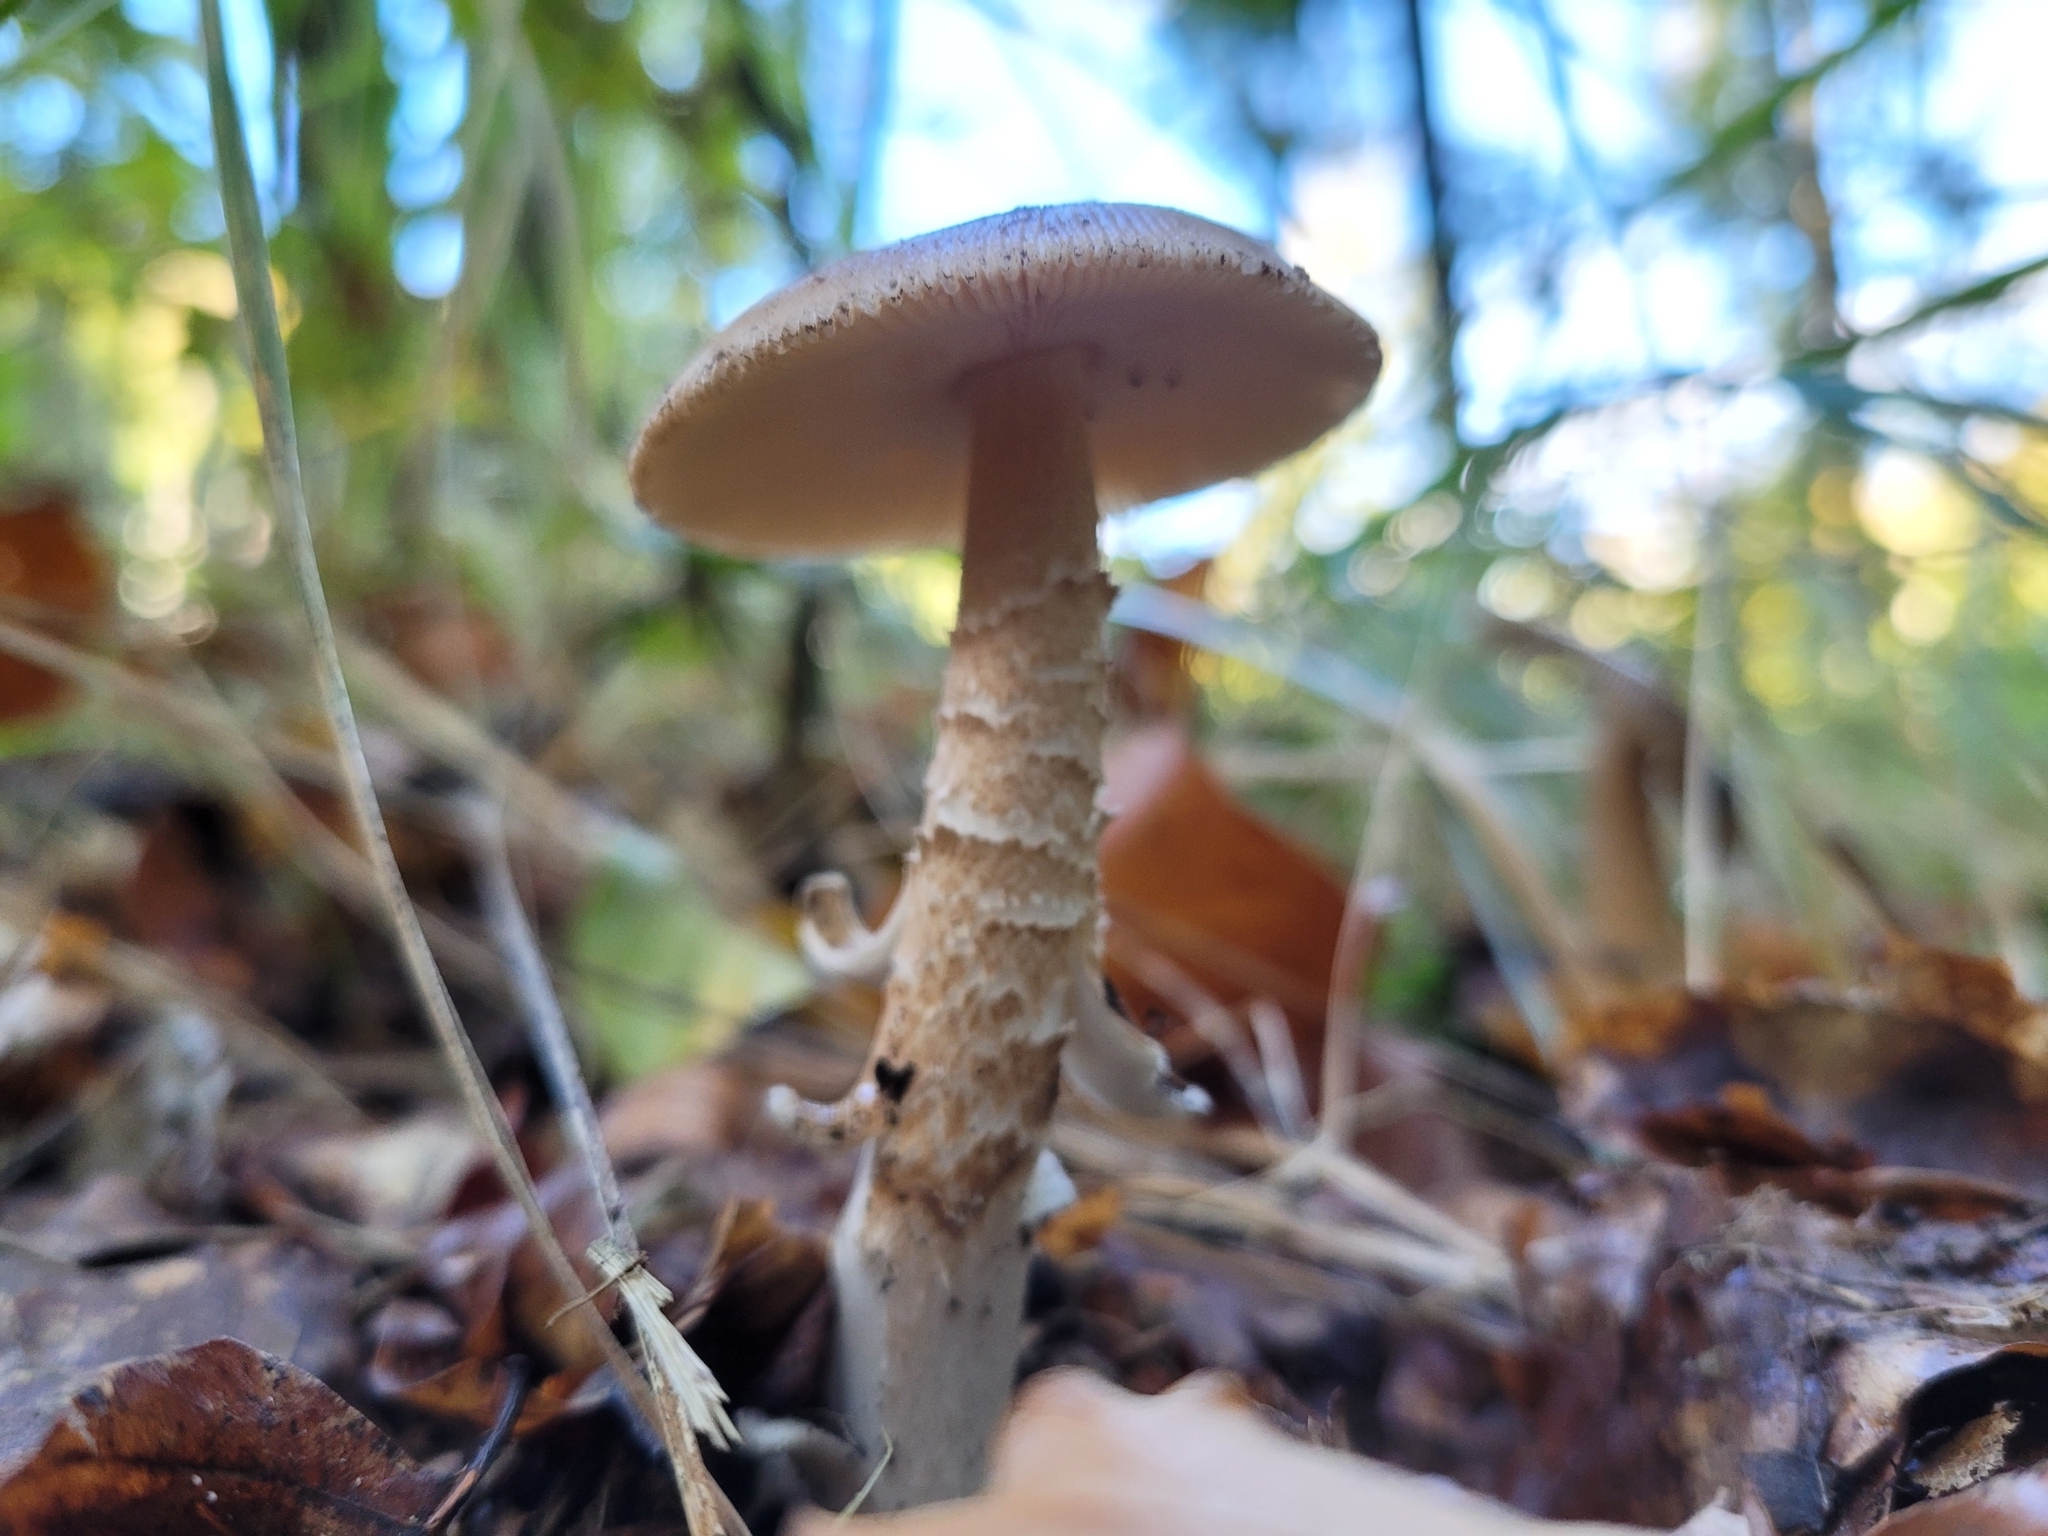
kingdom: Fungi
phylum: Basidiomycota
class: Agaricomycetes
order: Agaricales
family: Amanitaceae
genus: Amanita
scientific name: Amanita crocea
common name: Orange grisette
